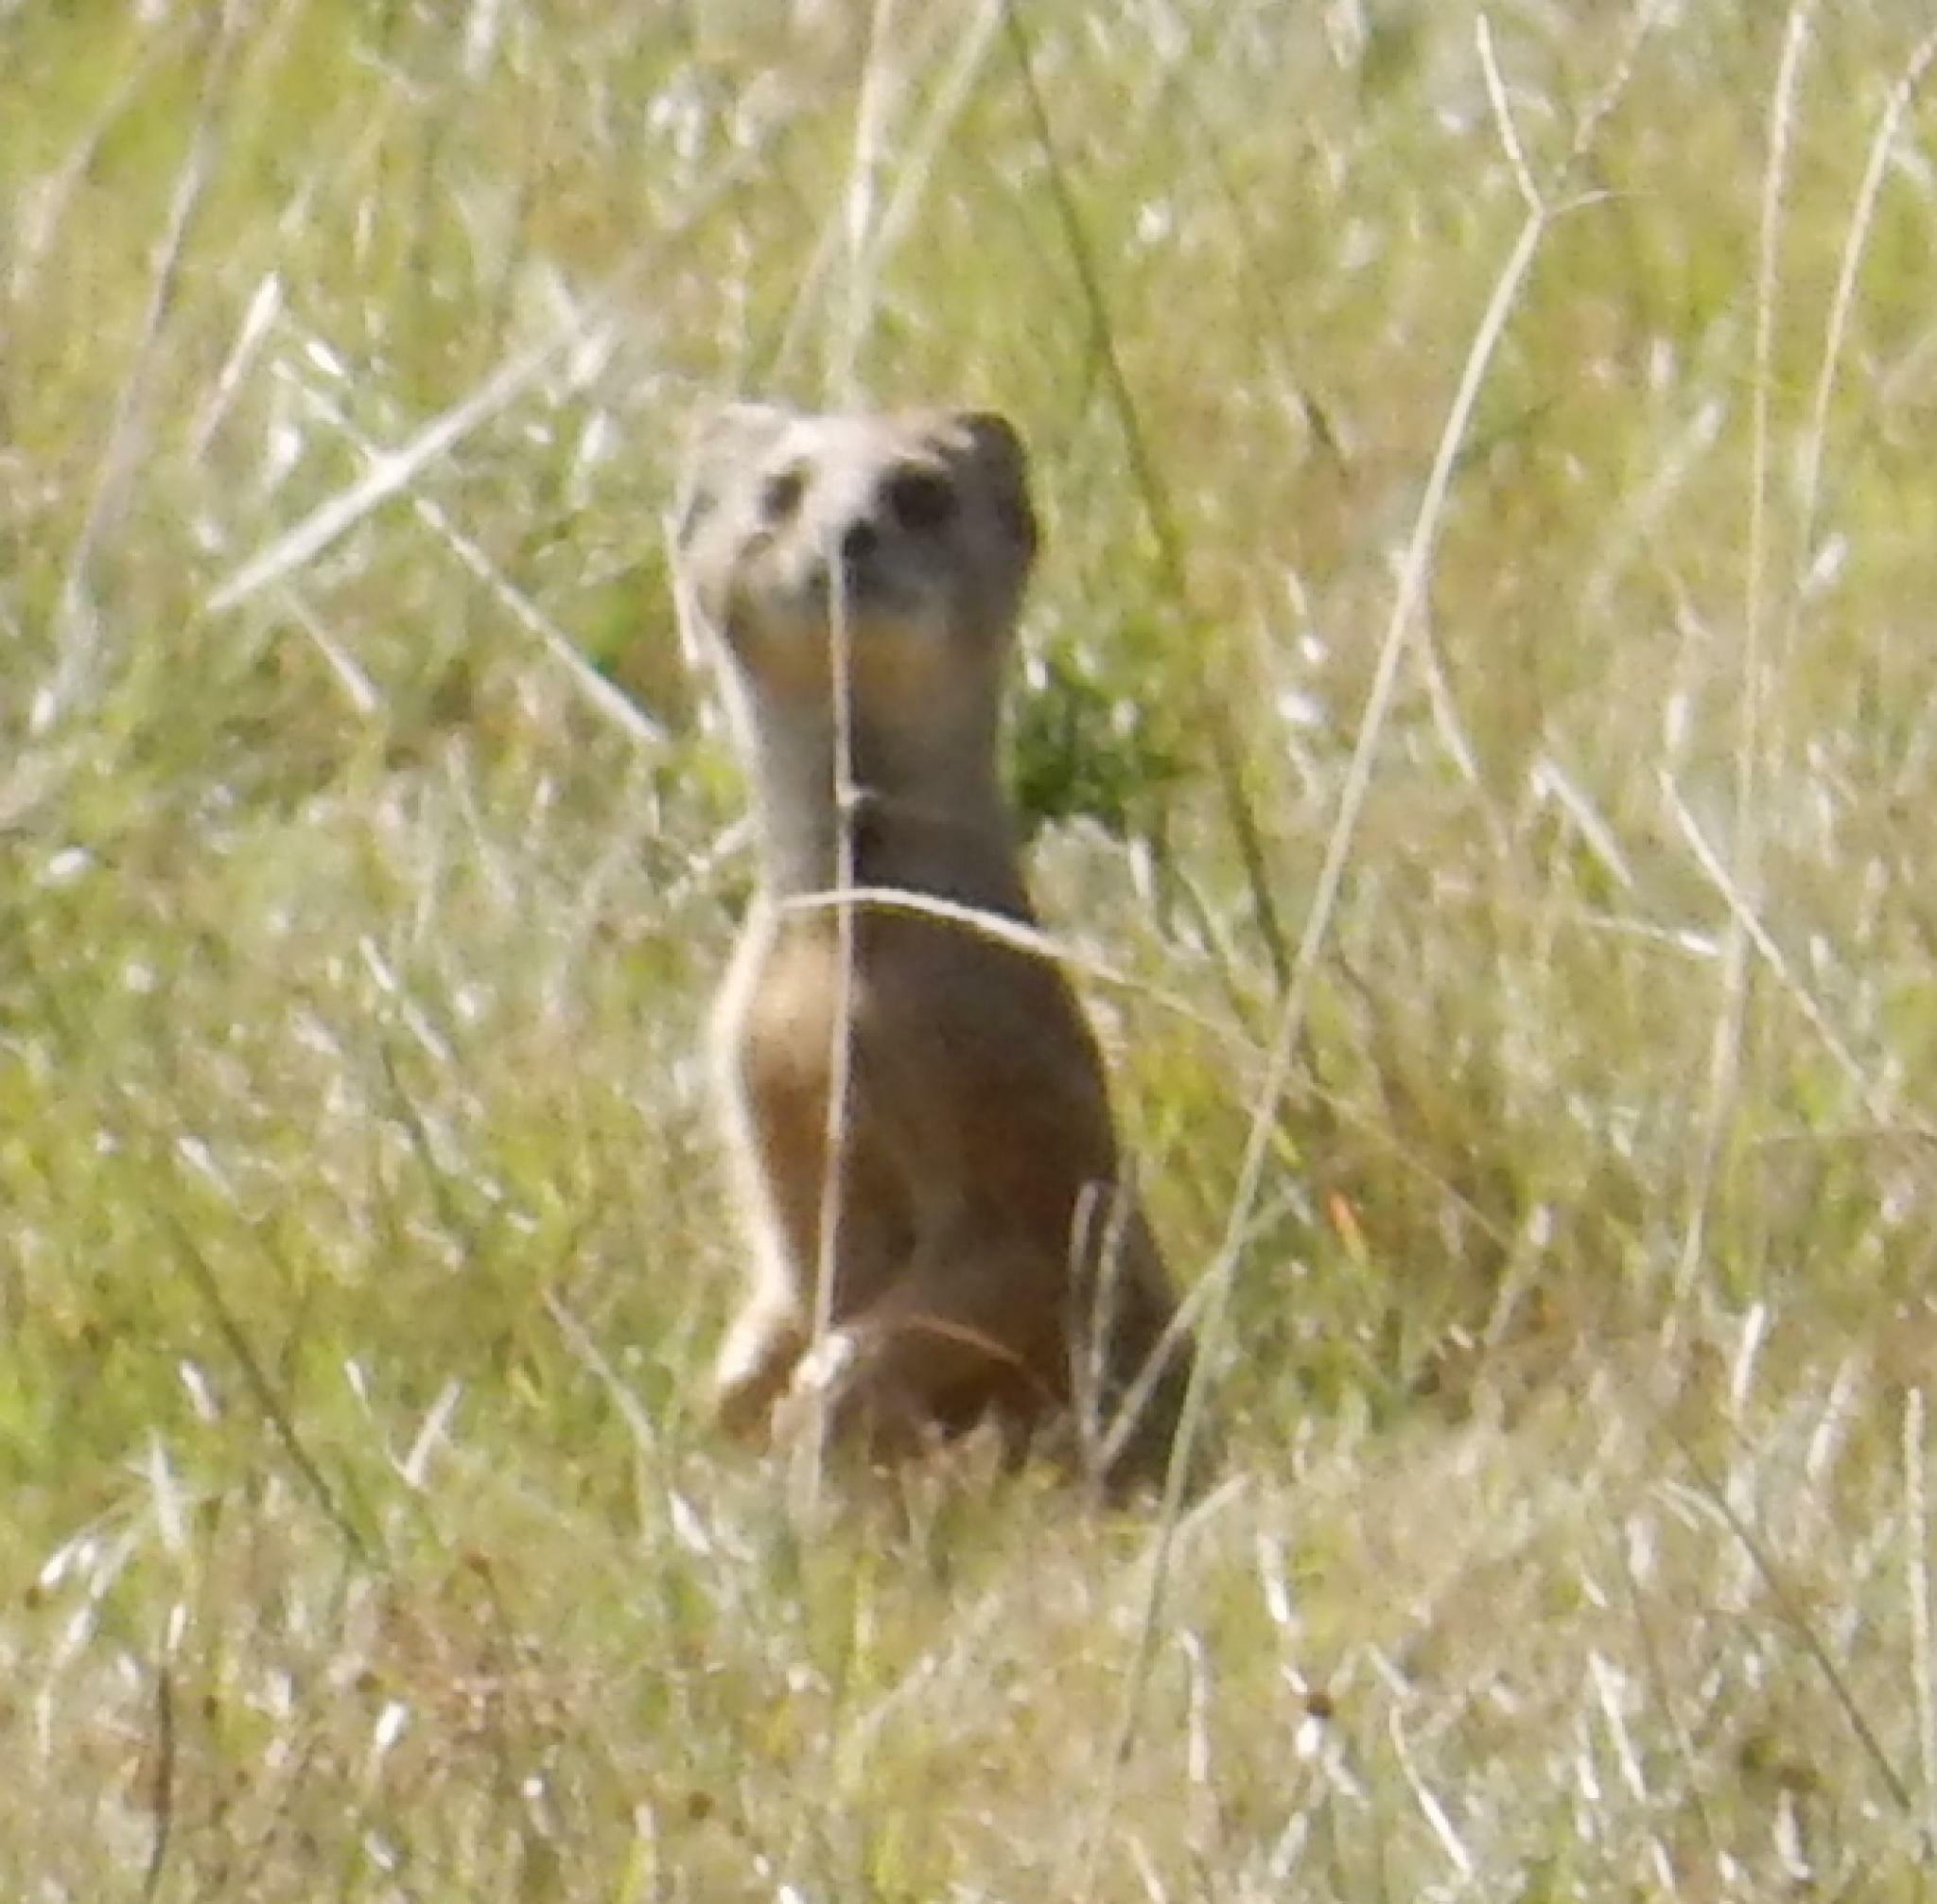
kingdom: Animalia
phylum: Chordata
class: Mammalia
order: Carnivora
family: Herpestidae
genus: Cynictis
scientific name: Cynictis penicillata
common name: Yellow mongoose
